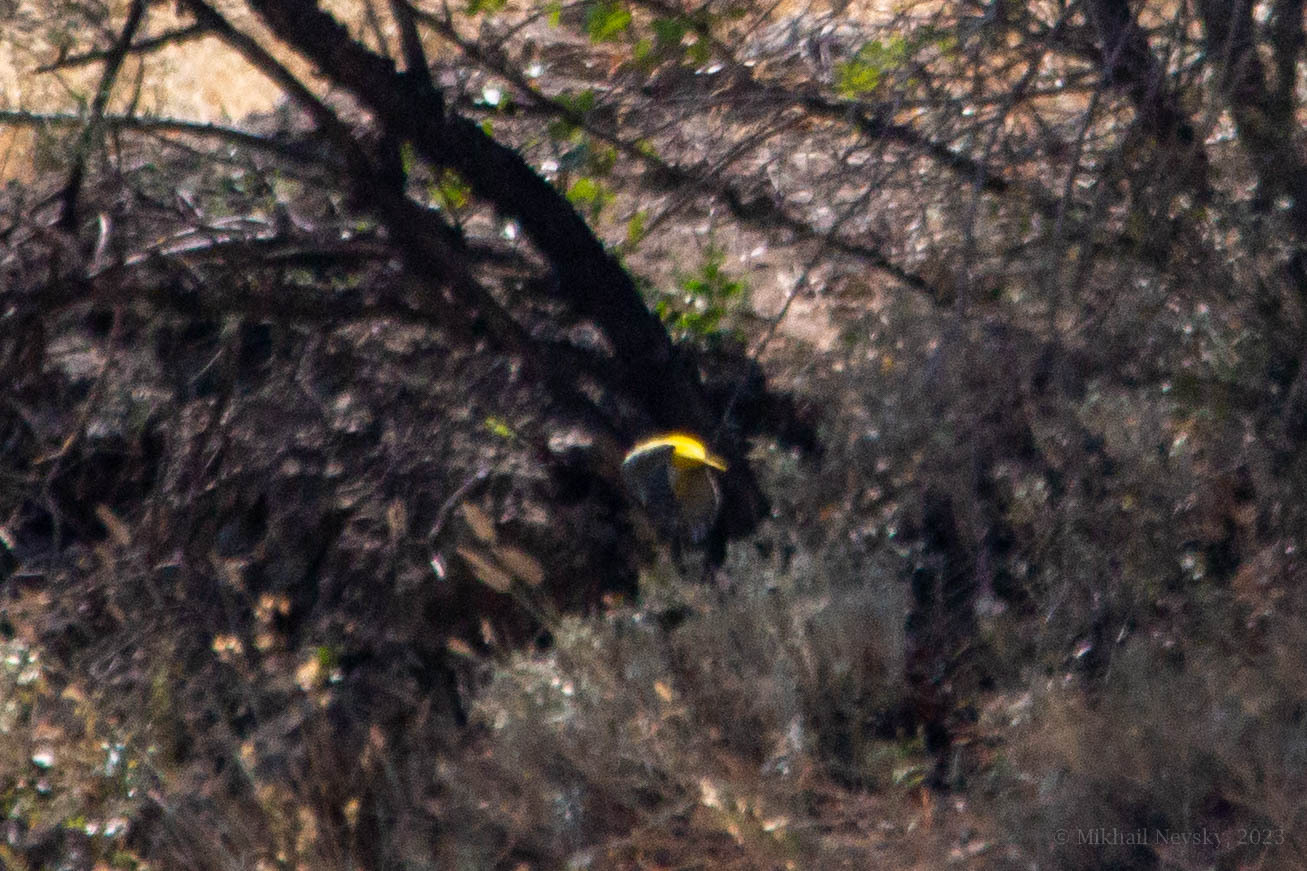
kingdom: Animalia
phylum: Chordata
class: Aves
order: Passeriformes
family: Oriolidae
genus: Oriolus
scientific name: Oriolus oriolus
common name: Eurasian golden oriole
